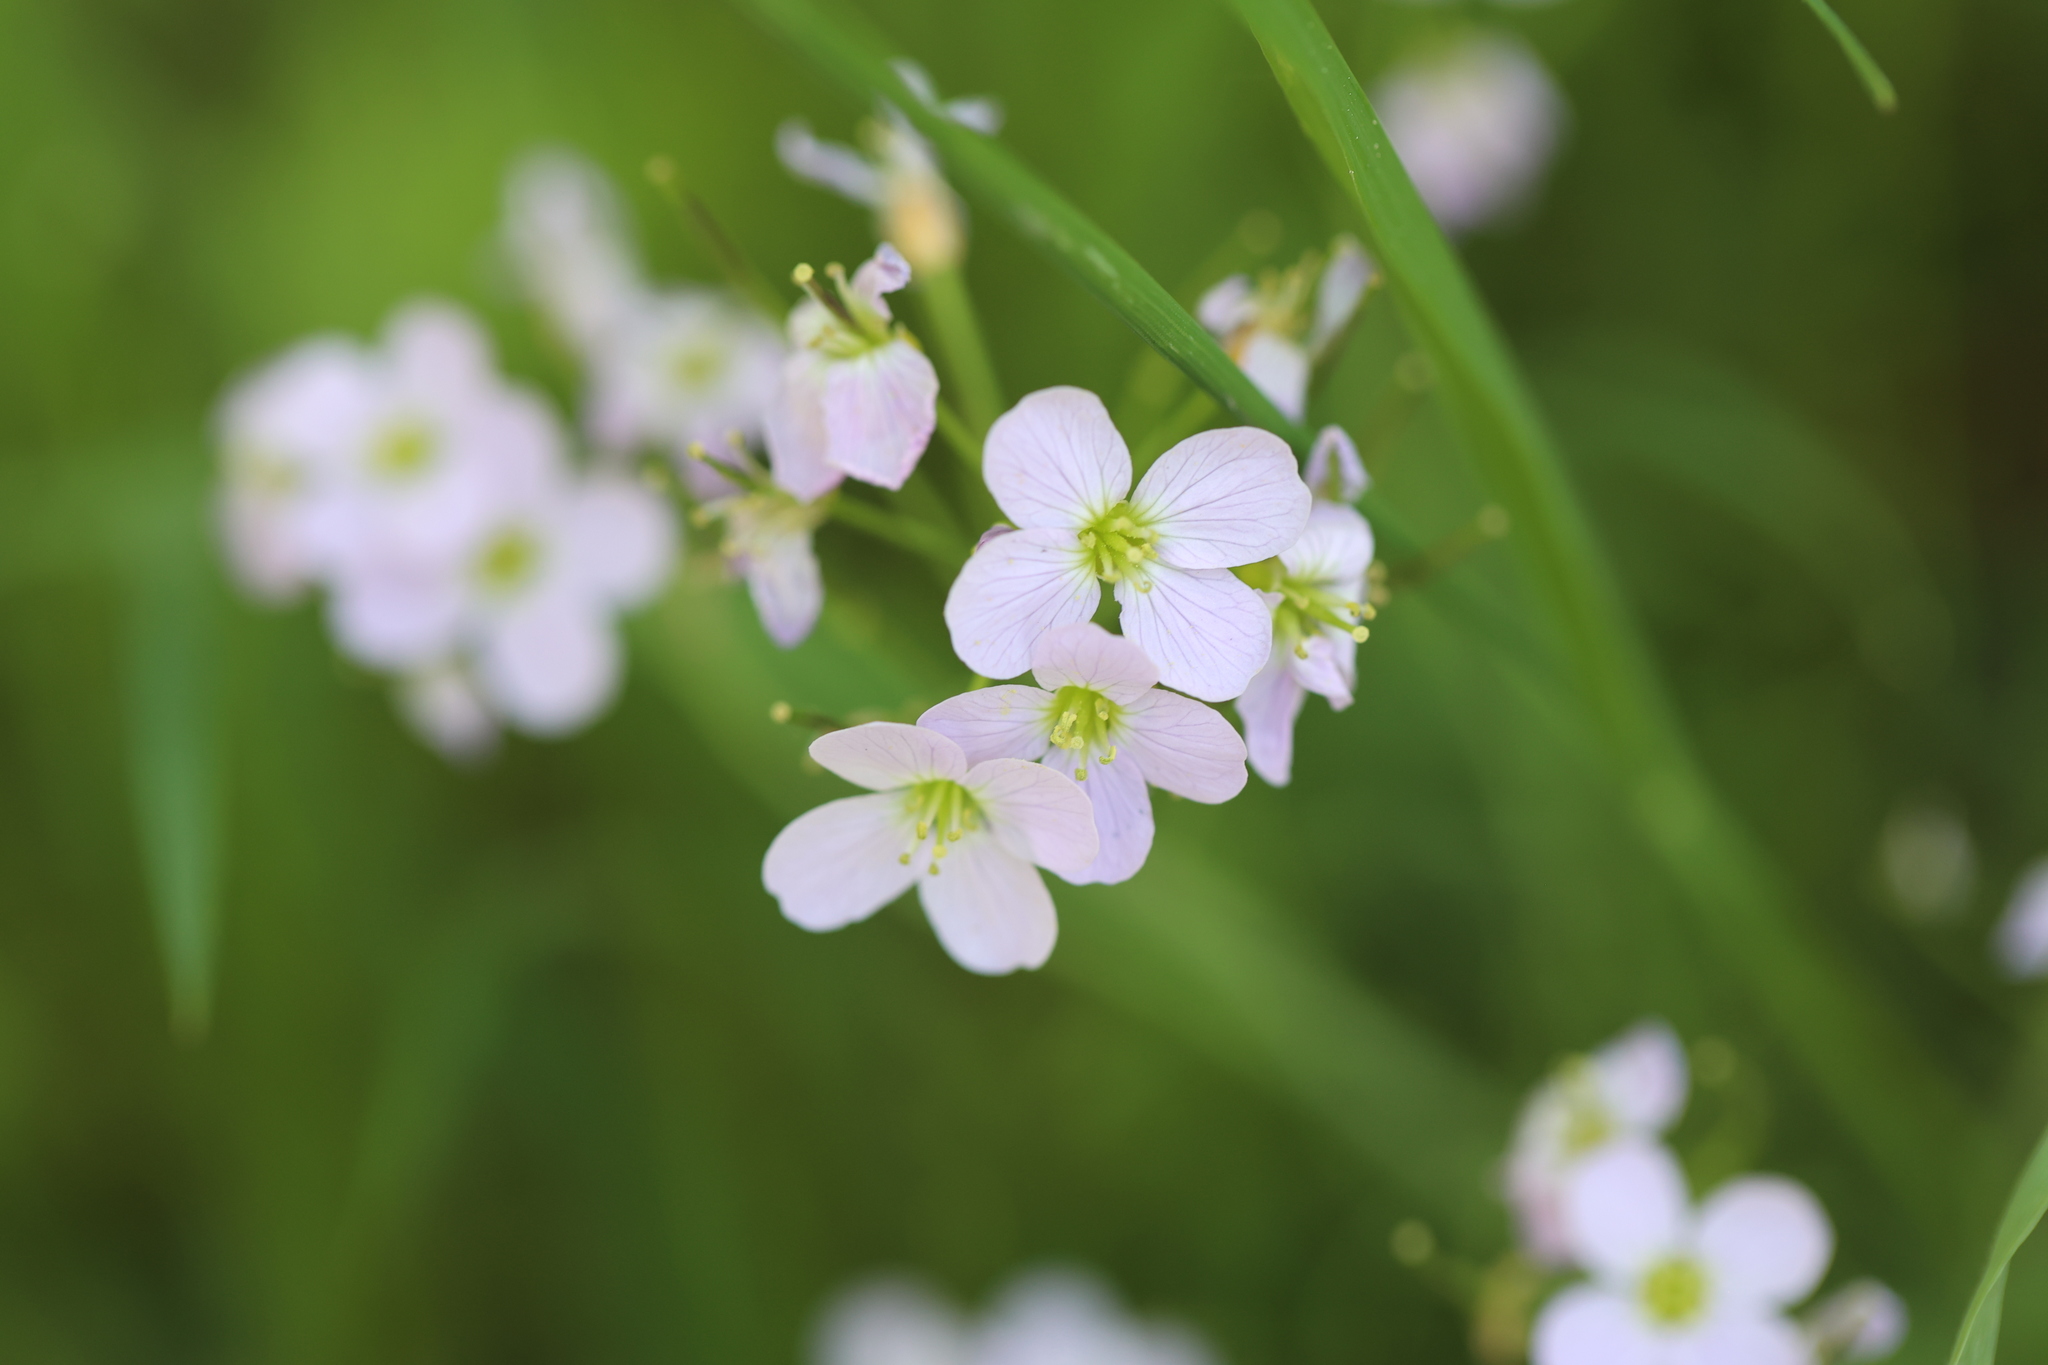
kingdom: Plantae
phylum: Tracheophyta
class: Magnoliopsida
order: Brassicales
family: Brassicaceae
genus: Cardamine
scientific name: Cardamine pratensis
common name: Cuckoo flower
